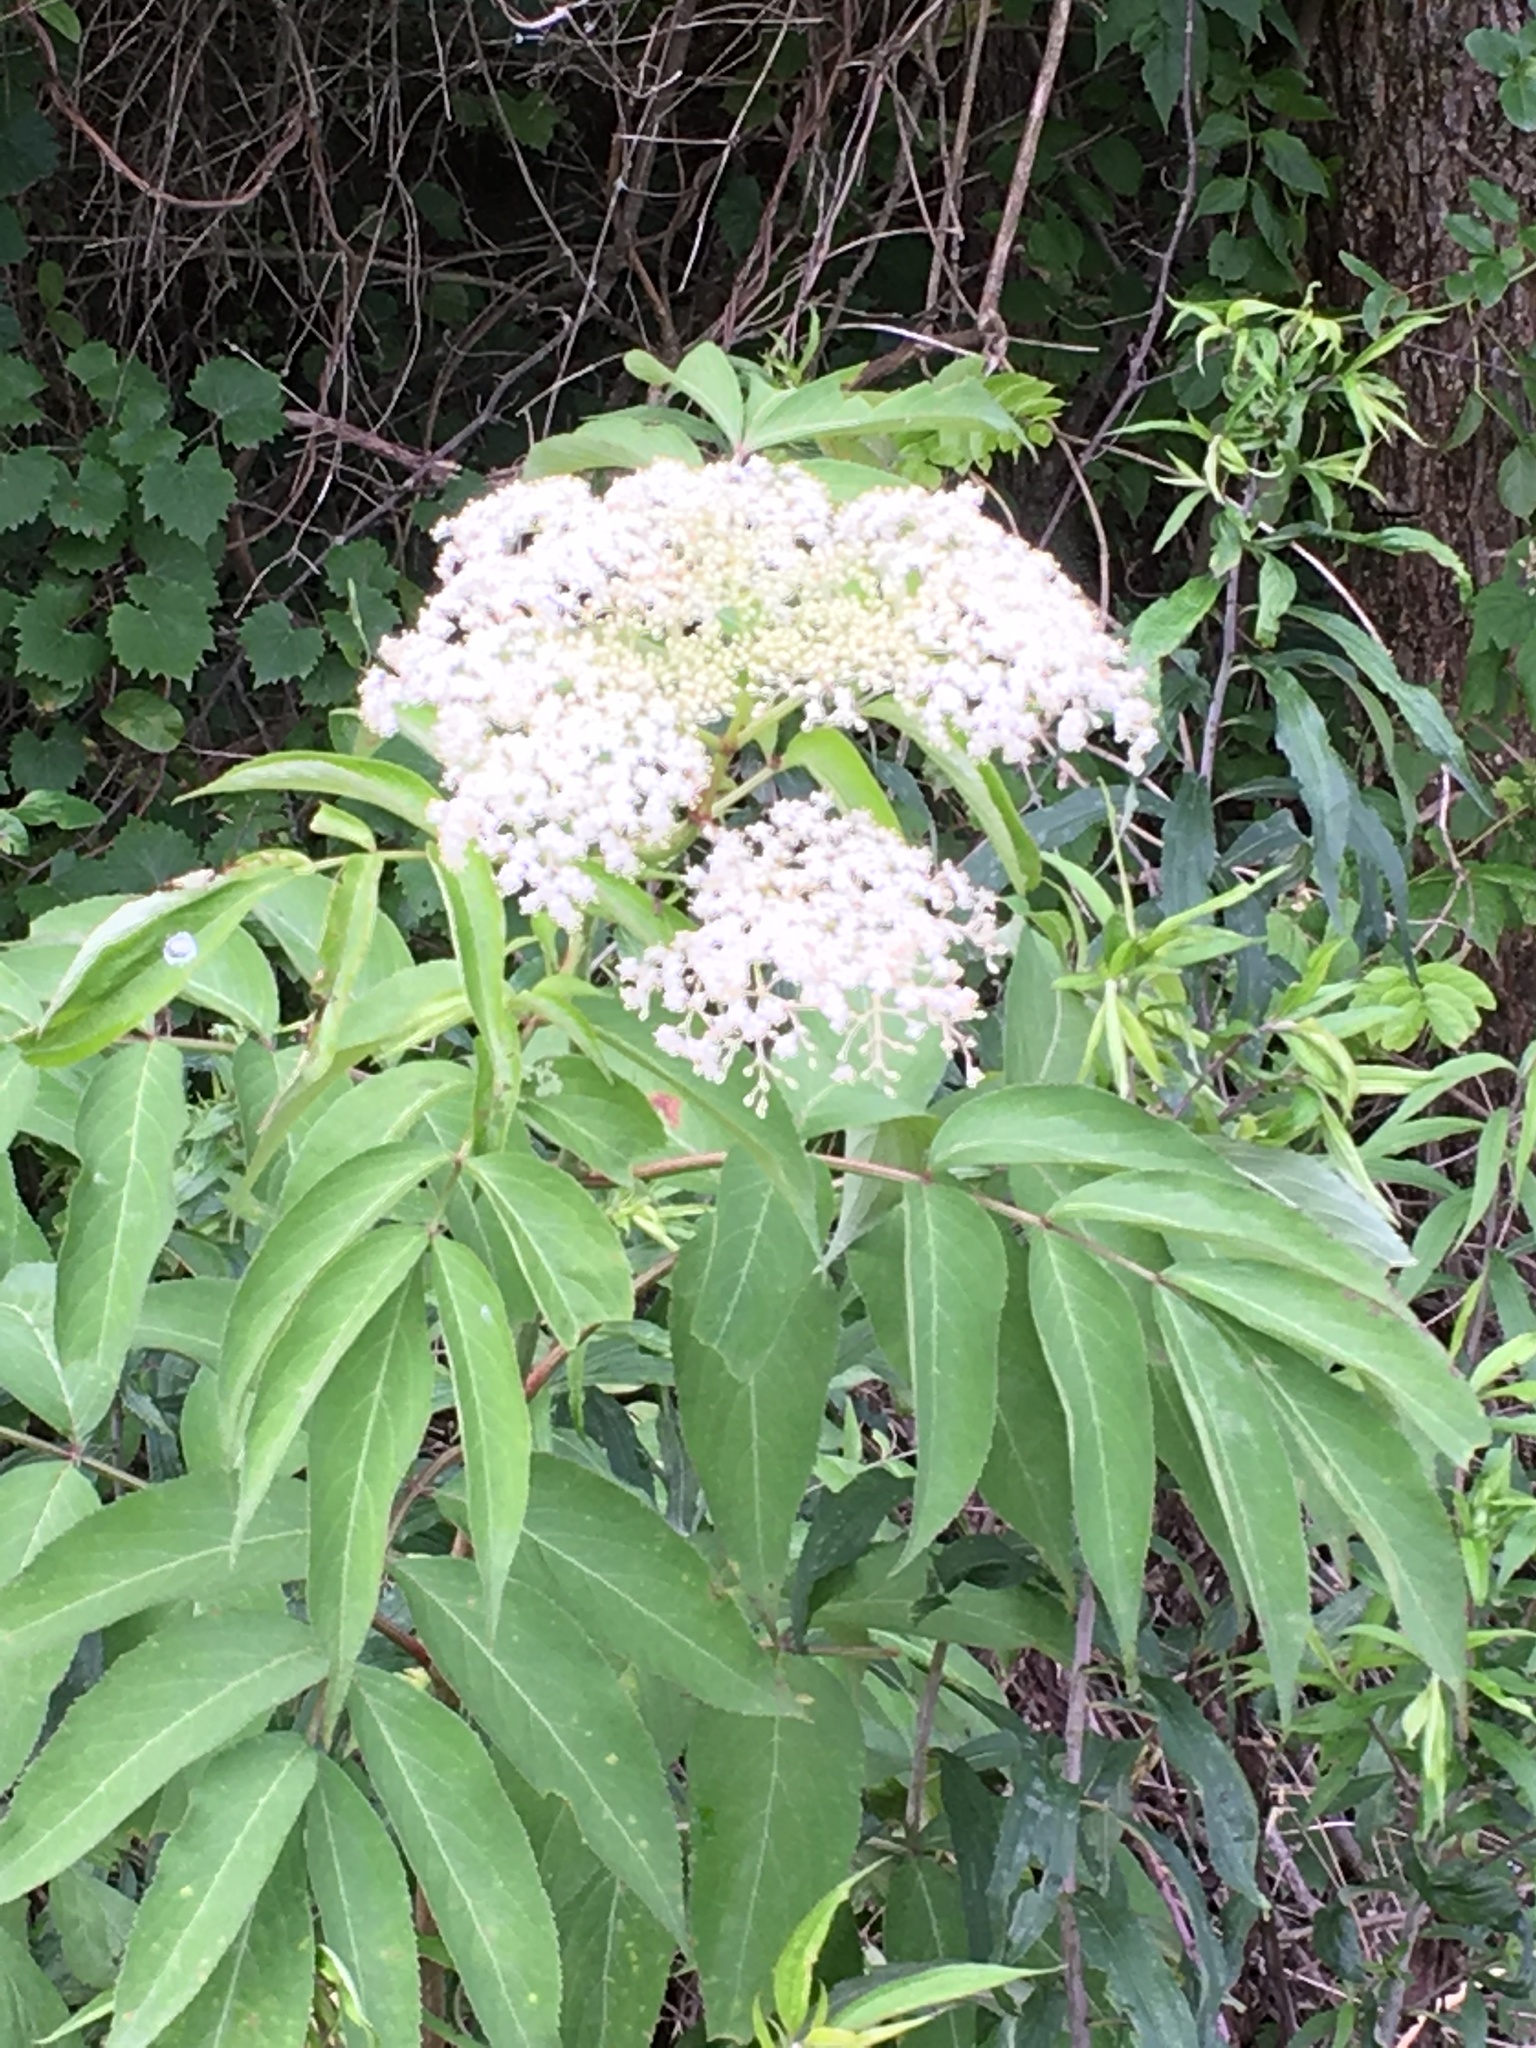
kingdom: Plantae
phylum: Tracheophyta
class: Magnoliopsida
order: Dipsacales
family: Viburnaceae
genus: Sambucus
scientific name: Sambucus canadensis
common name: American elder
